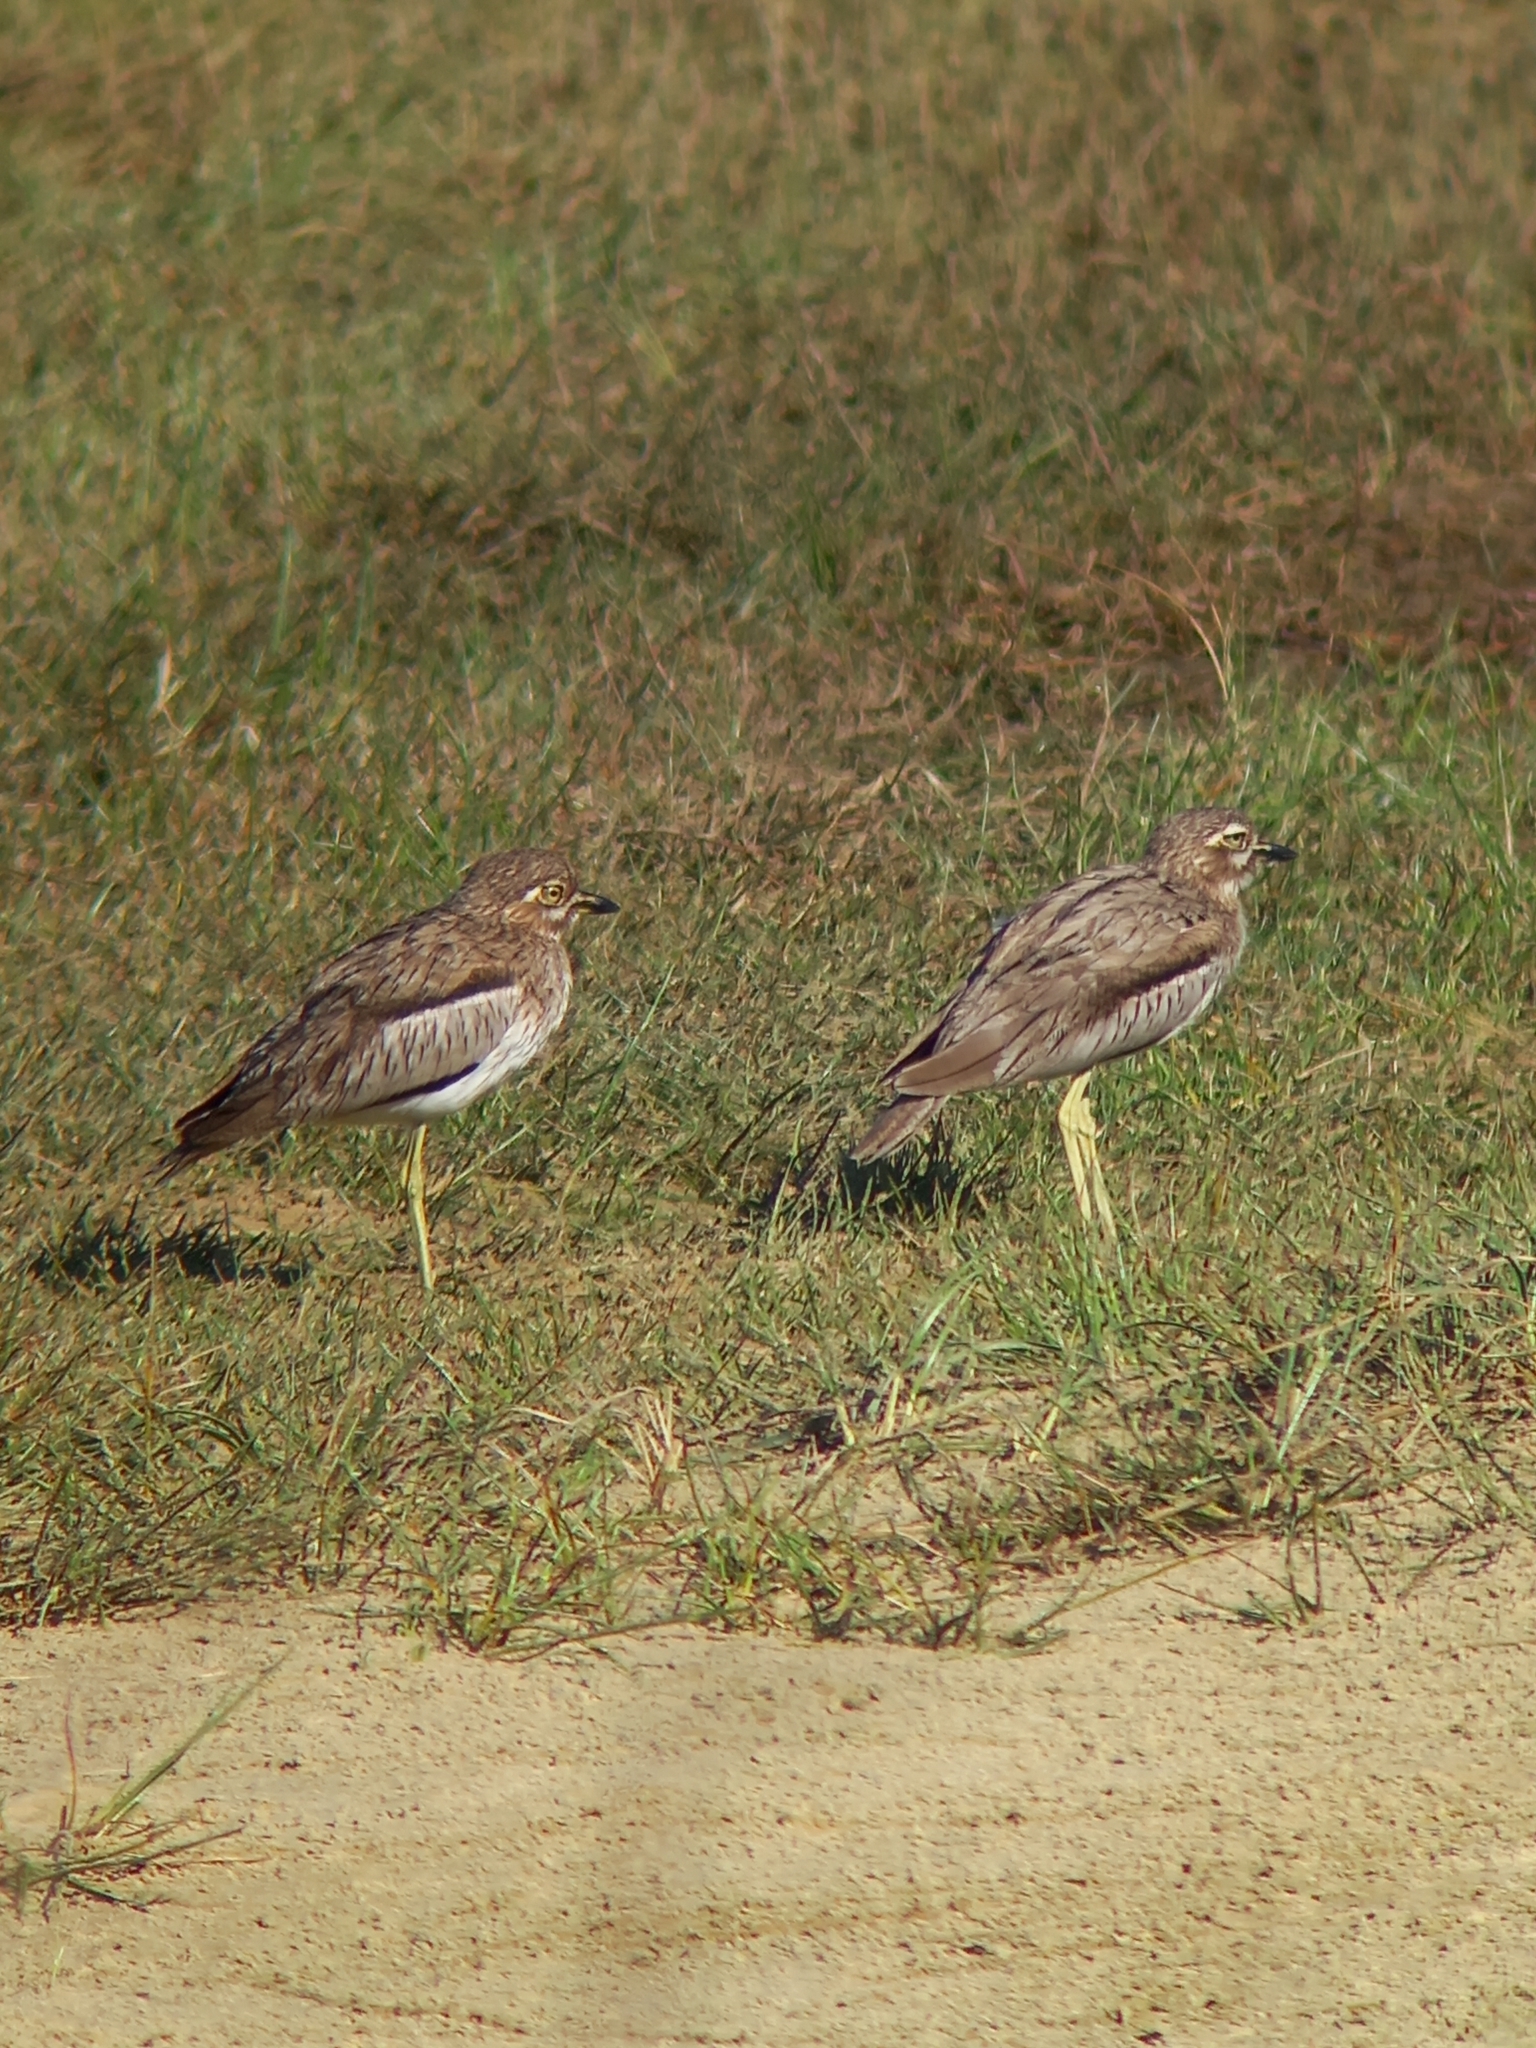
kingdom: Animalia
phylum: Chordata
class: Aves
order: Charadriiformes
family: Burhinidae
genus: Burhinus
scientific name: Burhinus vermiculatus
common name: Water thick-knee
